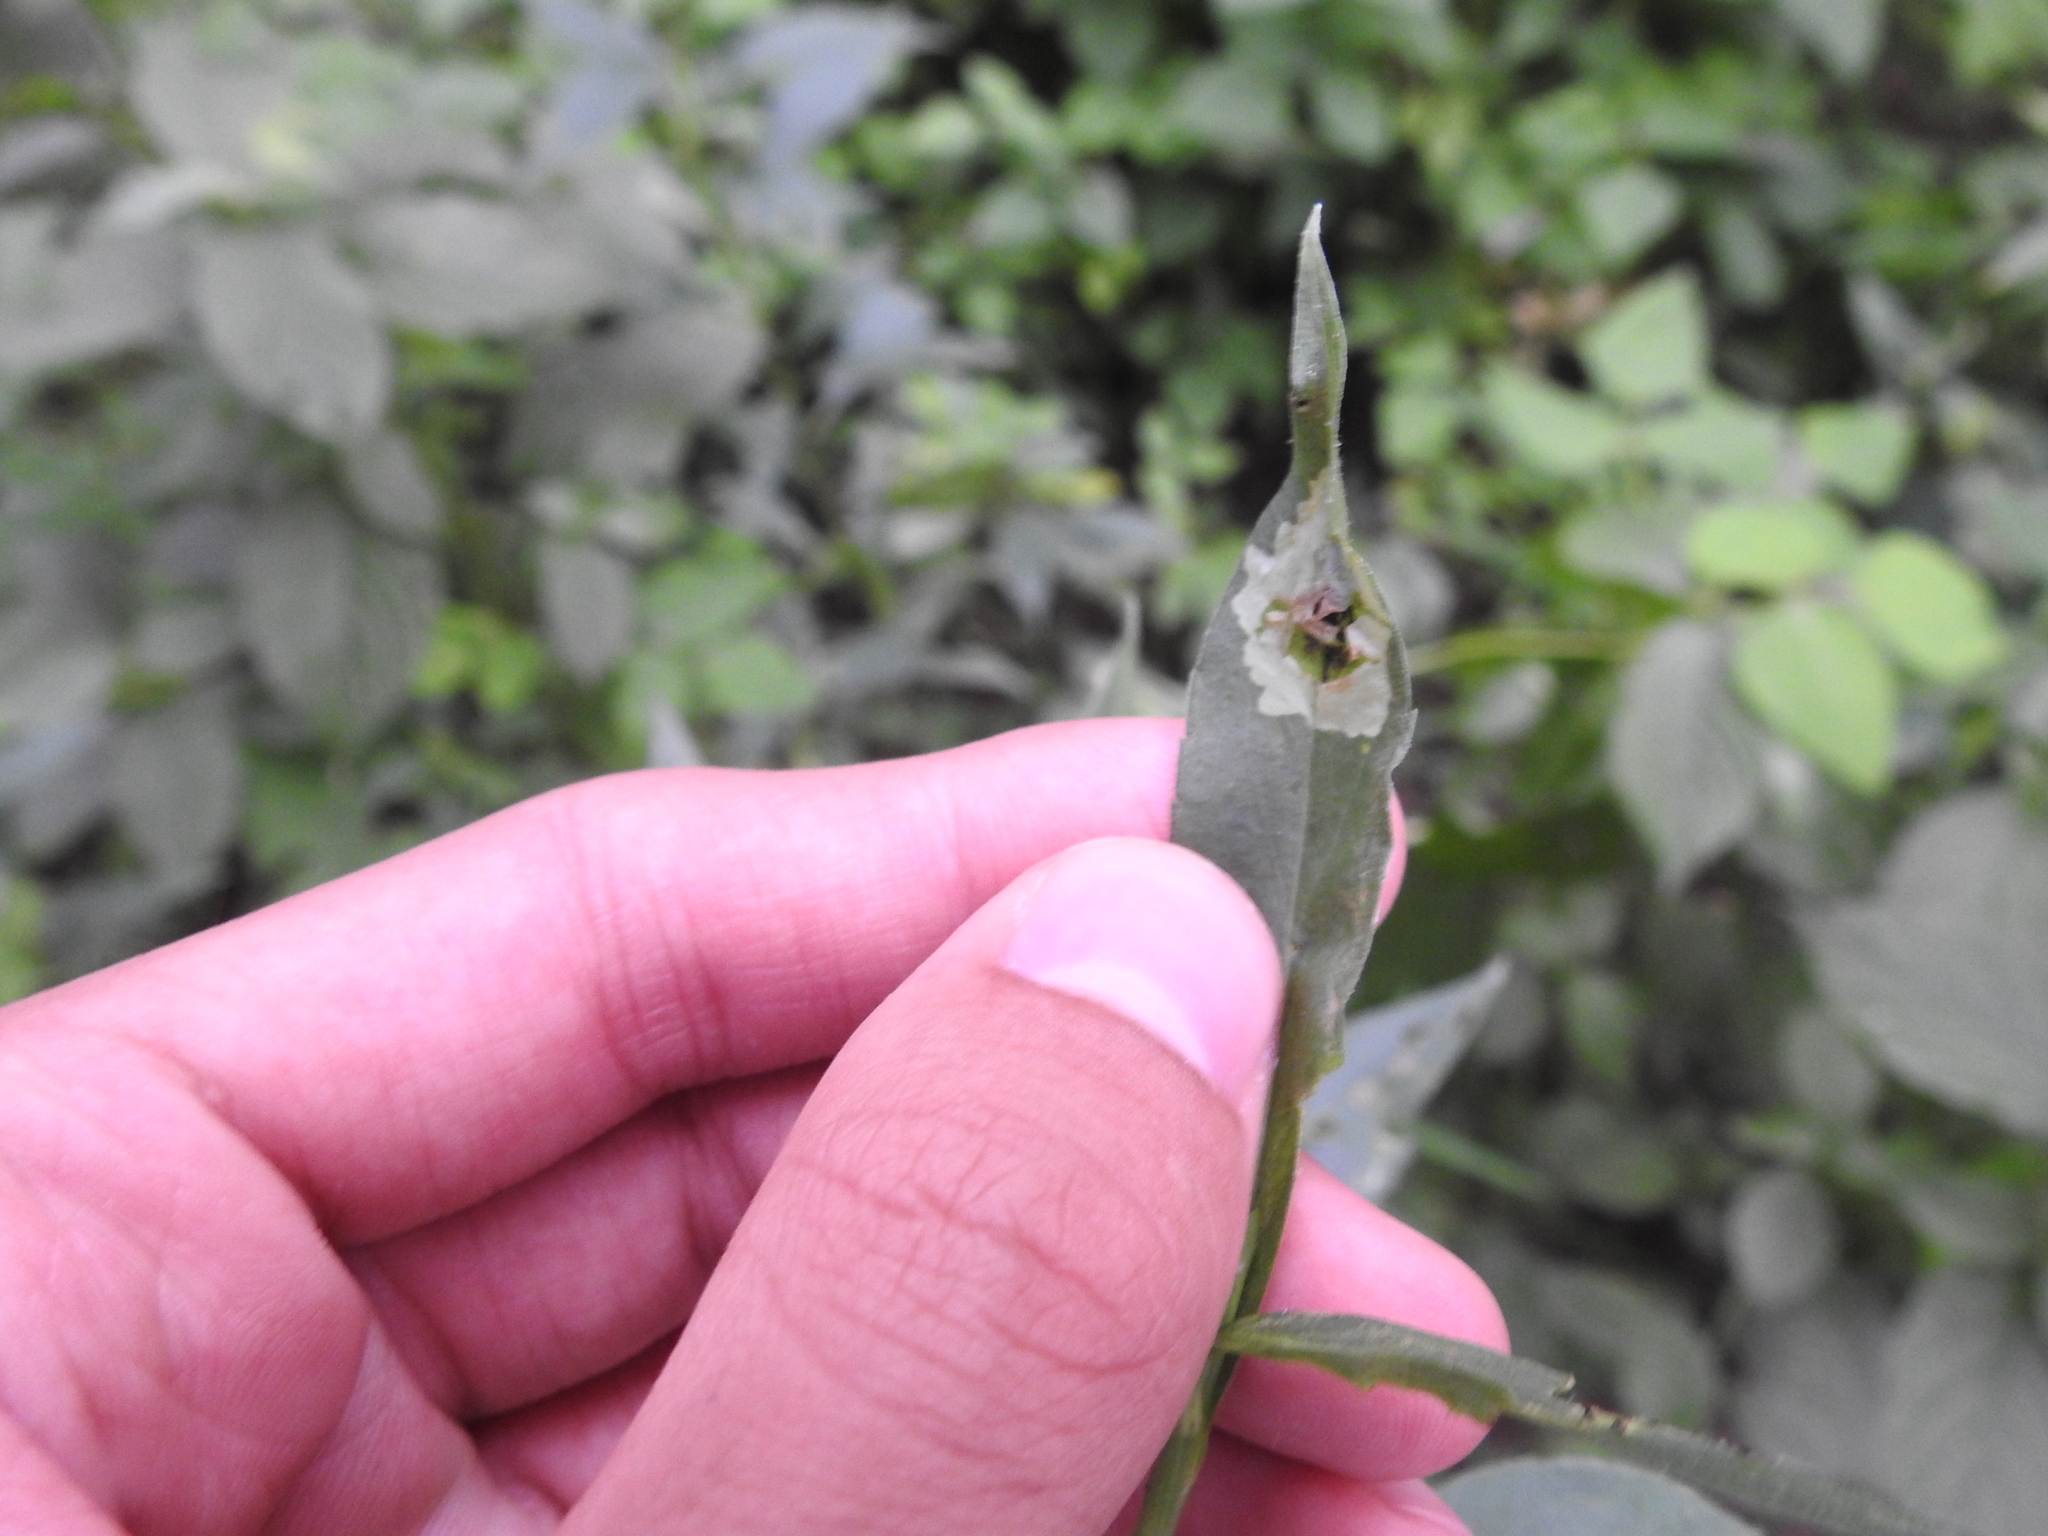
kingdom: Animalia
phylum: Arthropoda
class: Insecta
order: Diptera
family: Agromyzidae
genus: Calycomyza
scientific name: Calycomyza promissa
